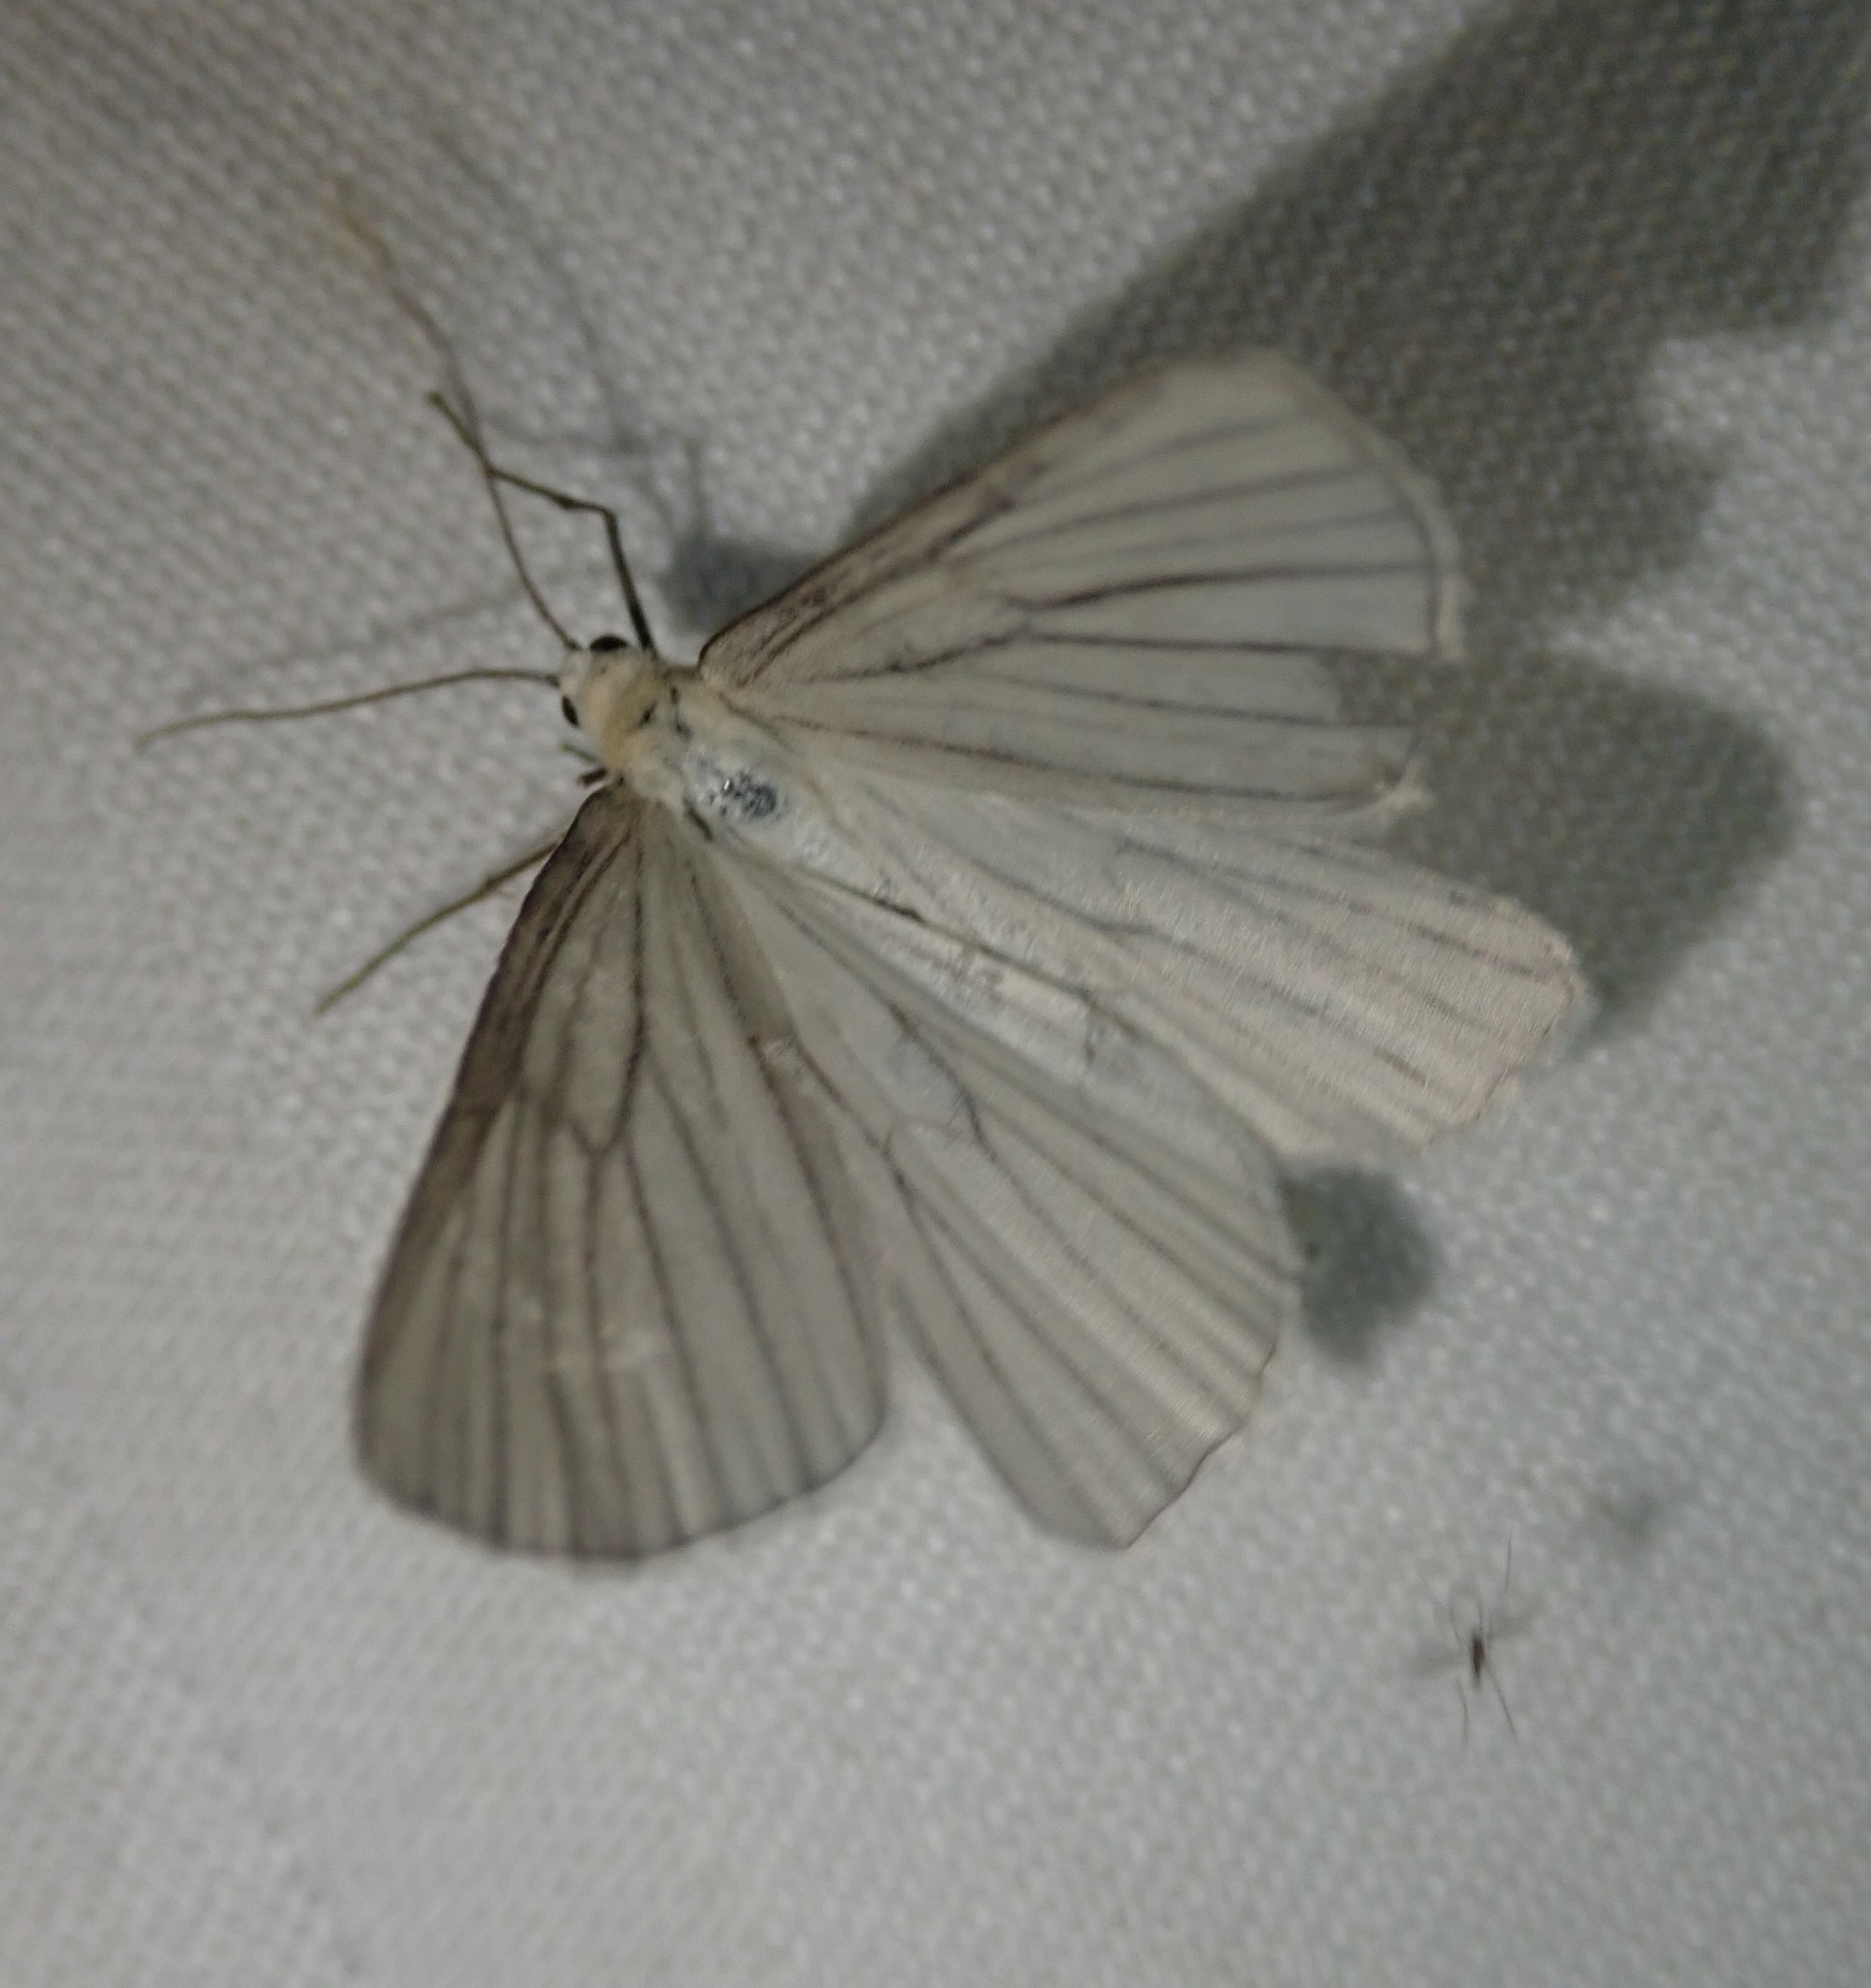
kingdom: Animalia
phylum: Arthropoda
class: Insecta
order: Lepidoptera
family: Geometridae
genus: Siona
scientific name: Siona lineata
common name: Black-veined moth
